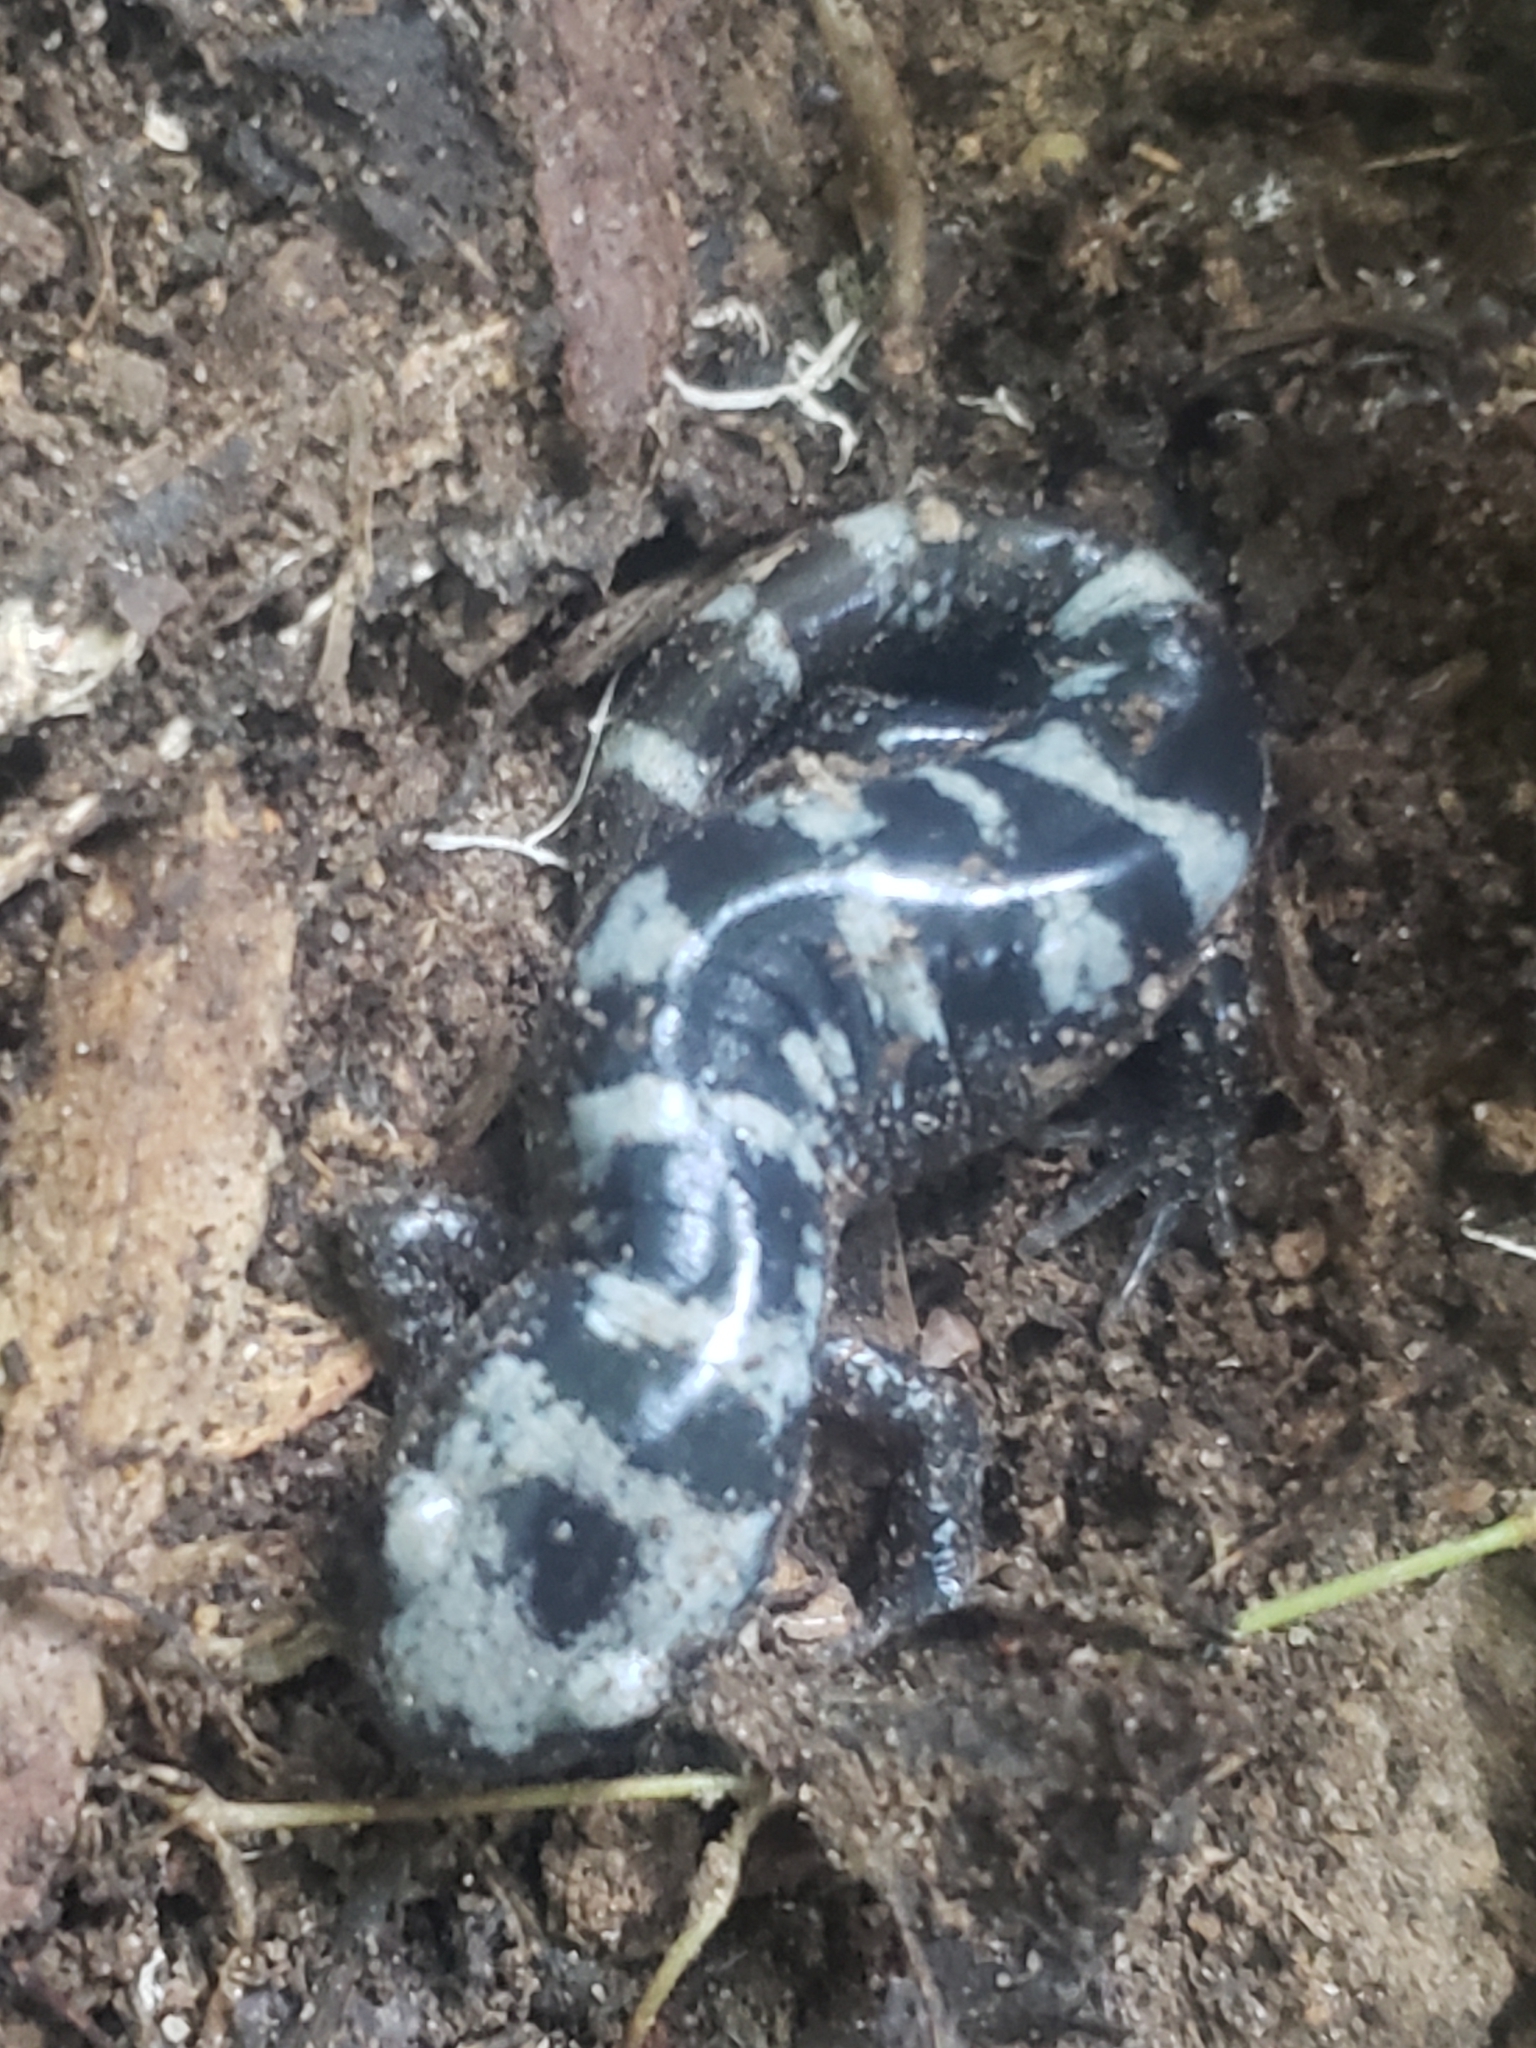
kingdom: Animalia
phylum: Chordata
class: Amphibia
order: Caudata
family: Ambystomatidae
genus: Ambystoma
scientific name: Ambystoma opacum
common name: Marbled salamander
